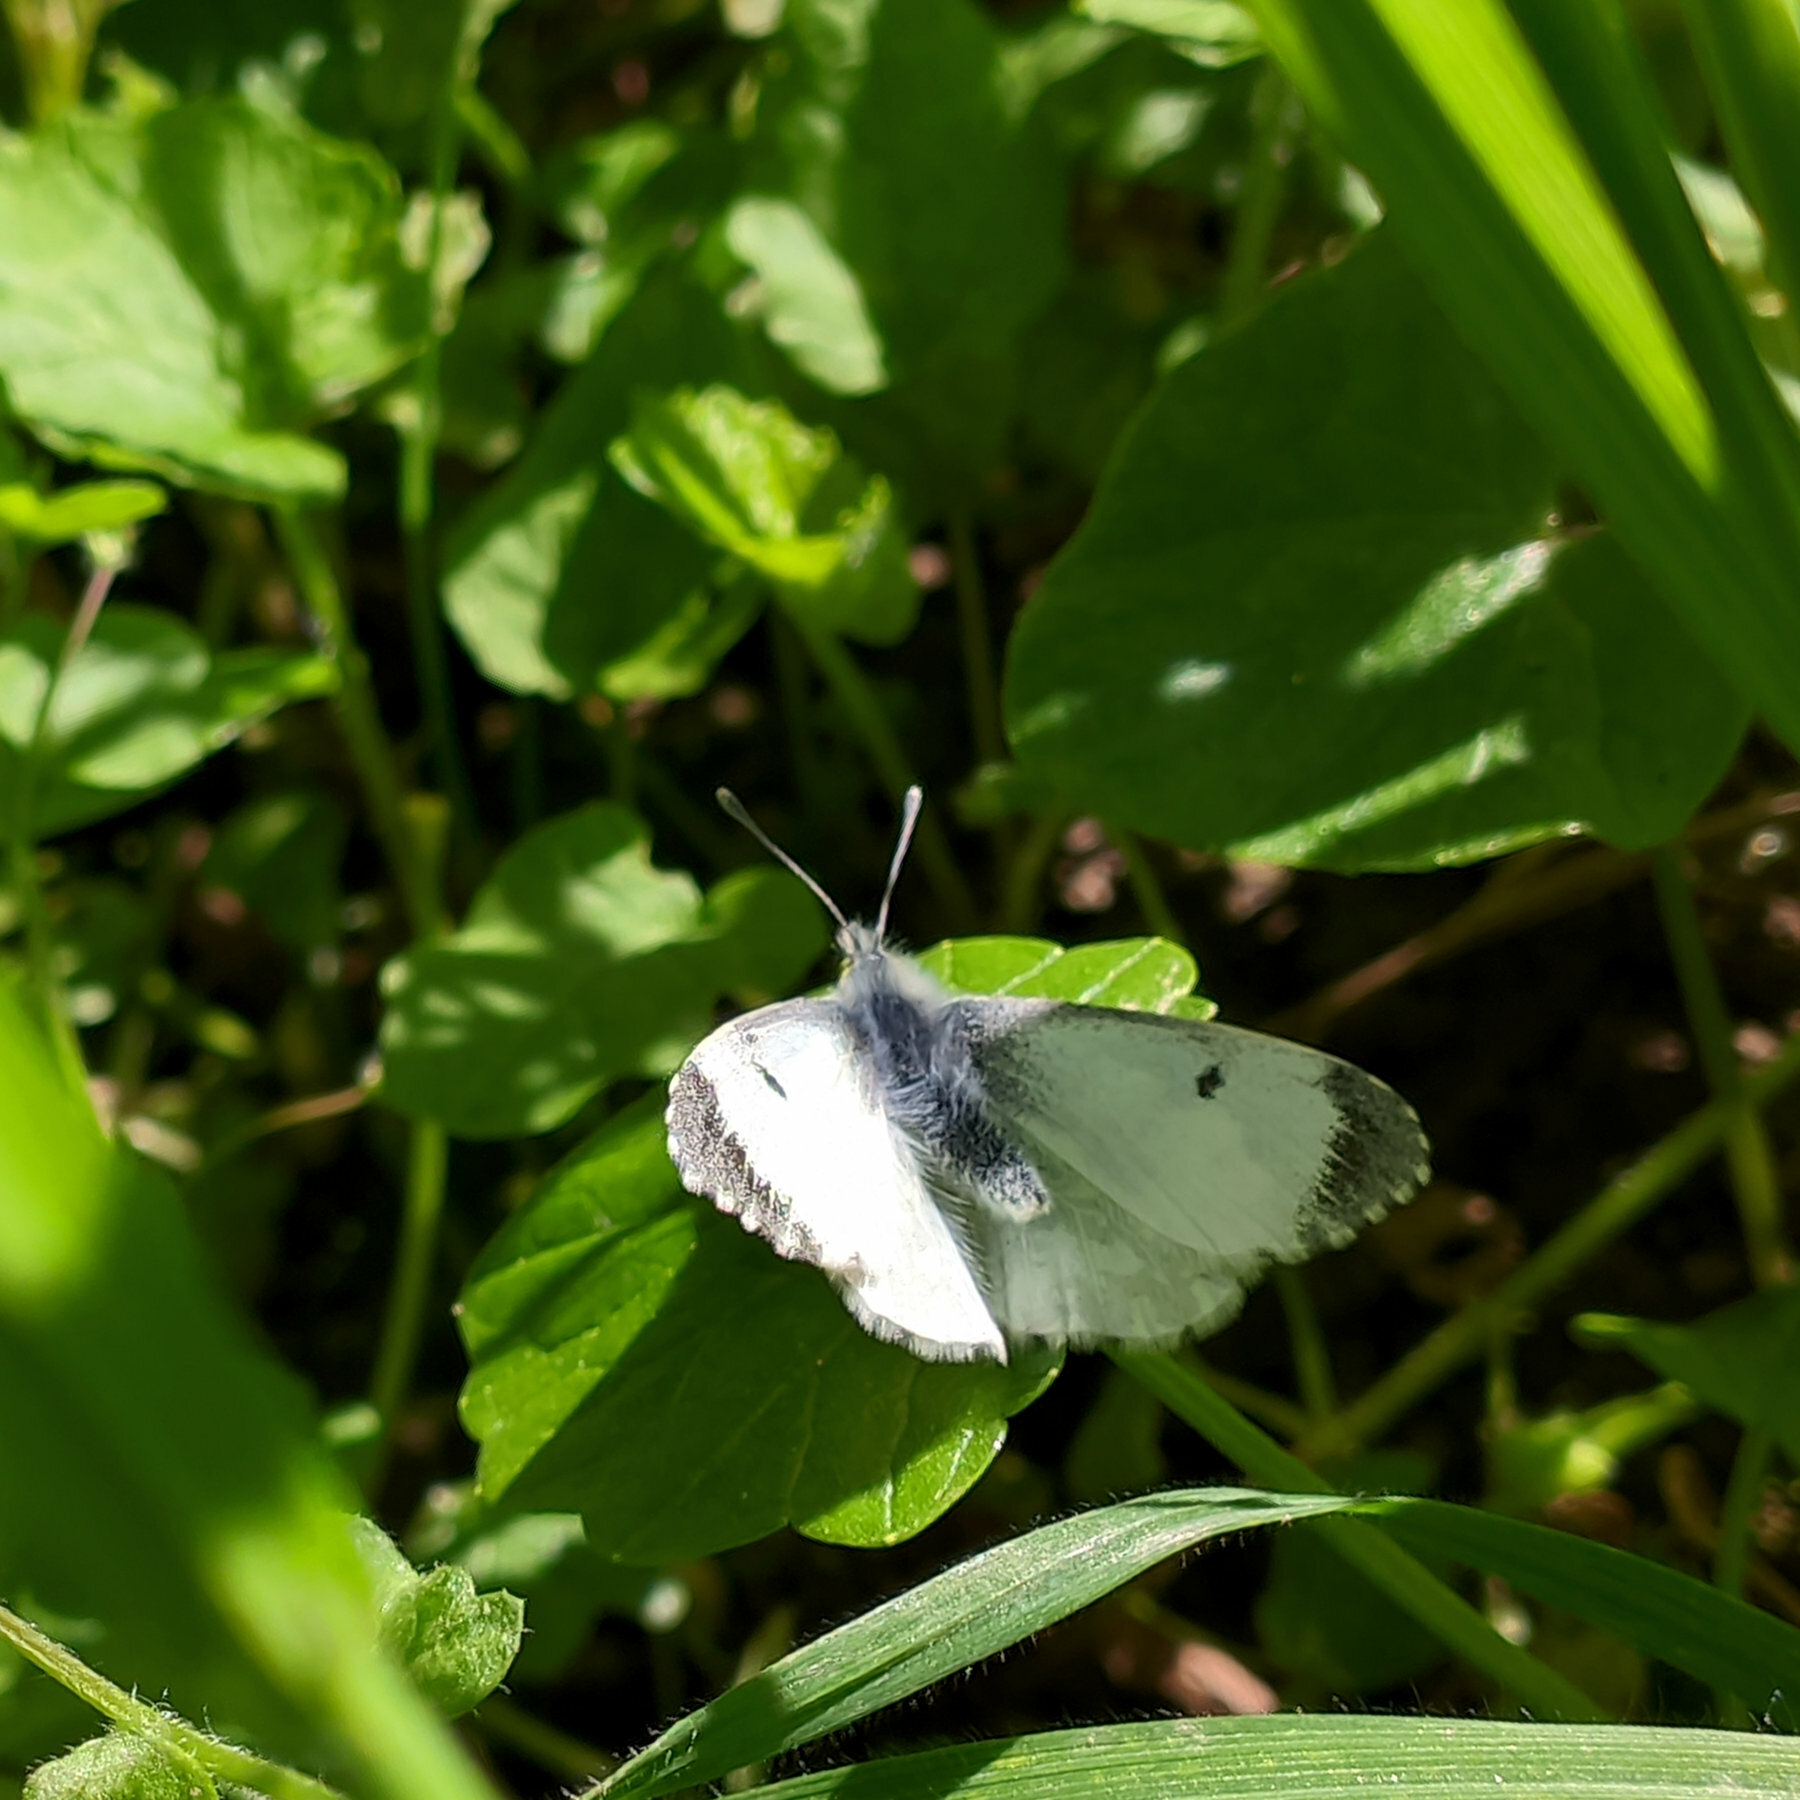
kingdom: Animalia
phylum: Arthropoda
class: Insecta
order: Lepidoptera
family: Pieridae
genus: Anthocharis
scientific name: Anthocharis cardamines
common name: Orange-tip
